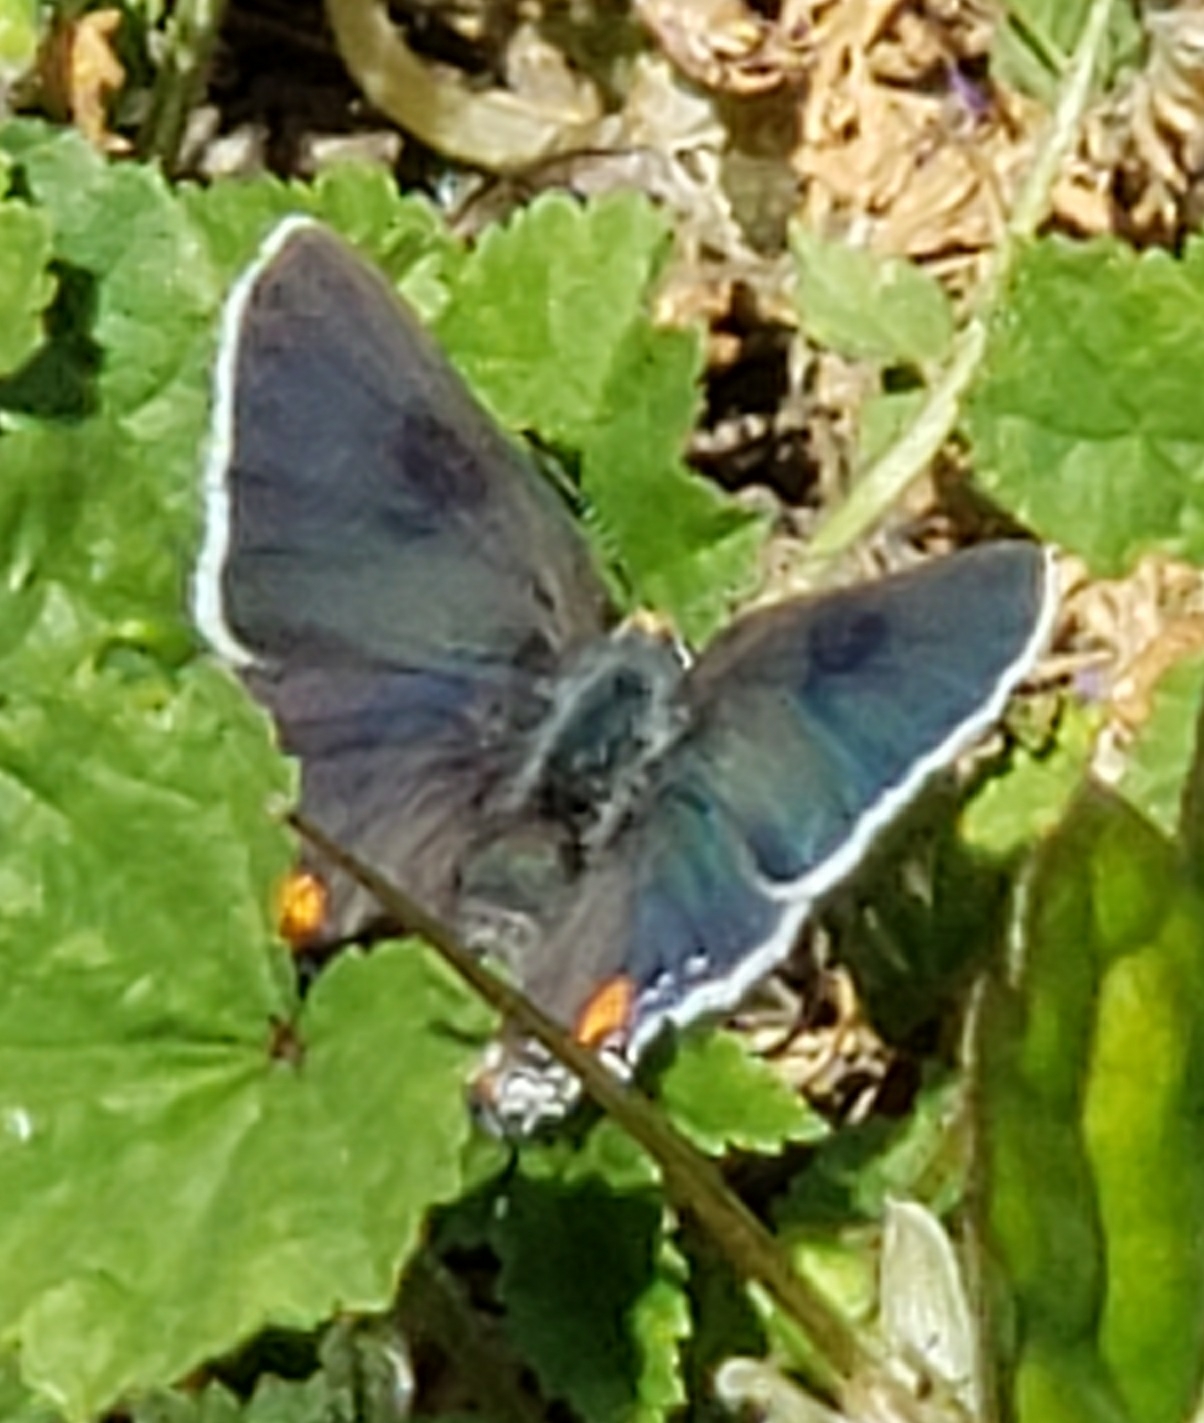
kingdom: Animalia
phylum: Arthropoda
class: Insecta
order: Lepidoptera
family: Lycaenidae
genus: Strymon
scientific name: Strymon melinus
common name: Gray hairstreak
